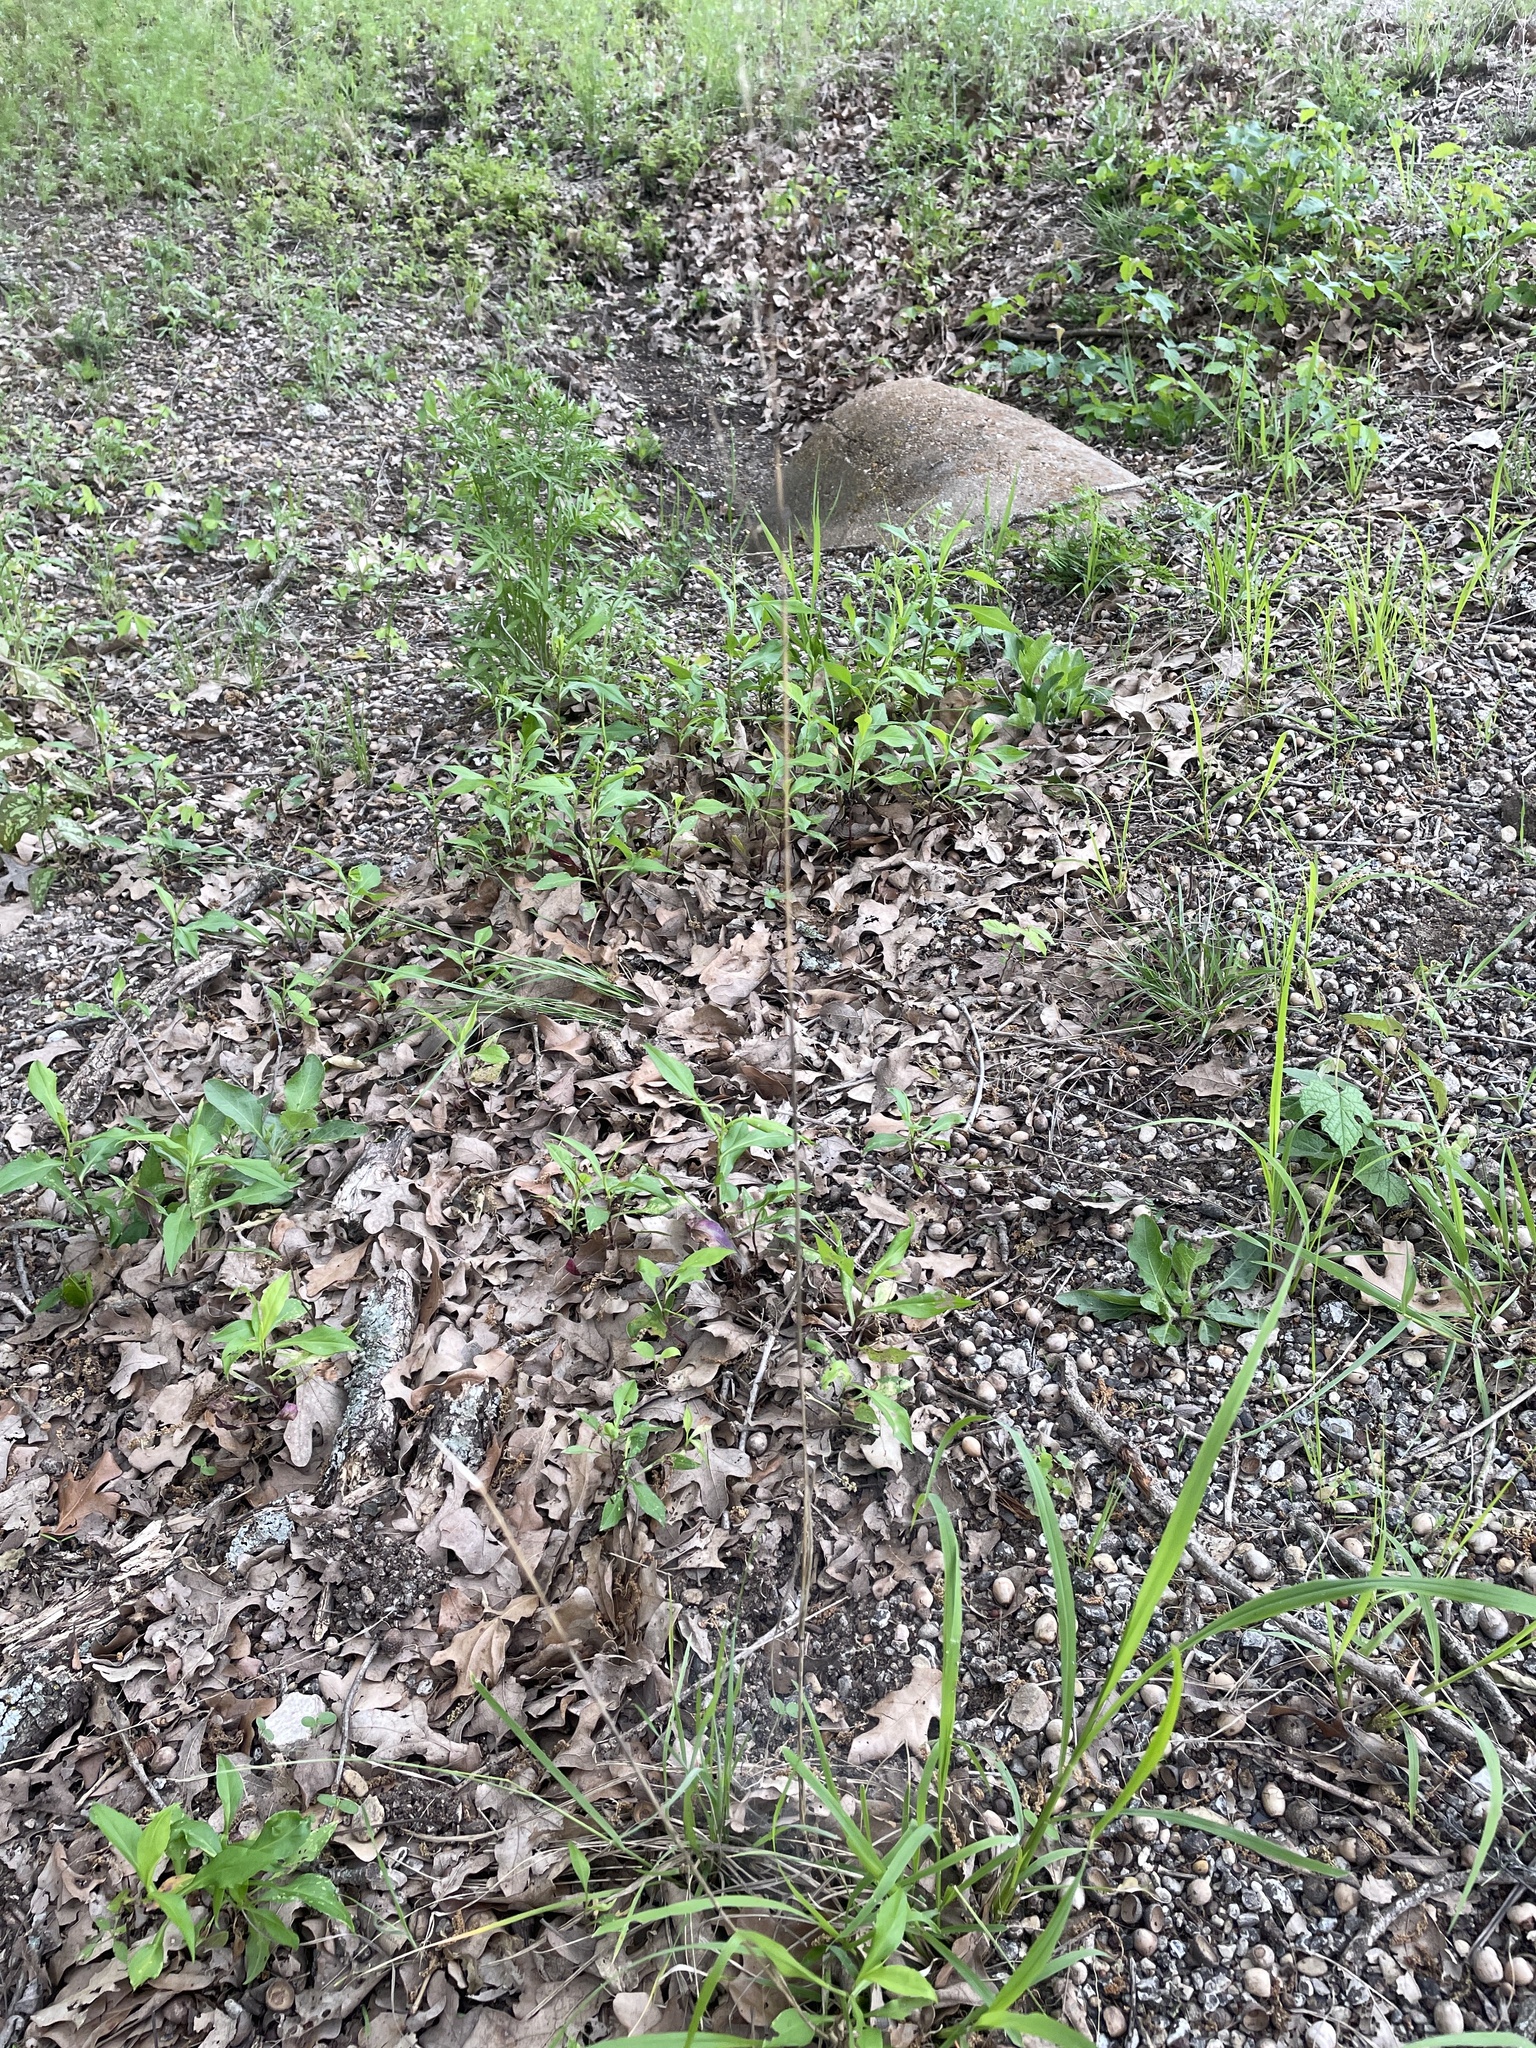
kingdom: Plantae
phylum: Tracheophyta
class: Liliopsida
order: Poales
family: Poaceae
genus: Tridens
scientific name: Tridens flavus
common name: Purpletop
